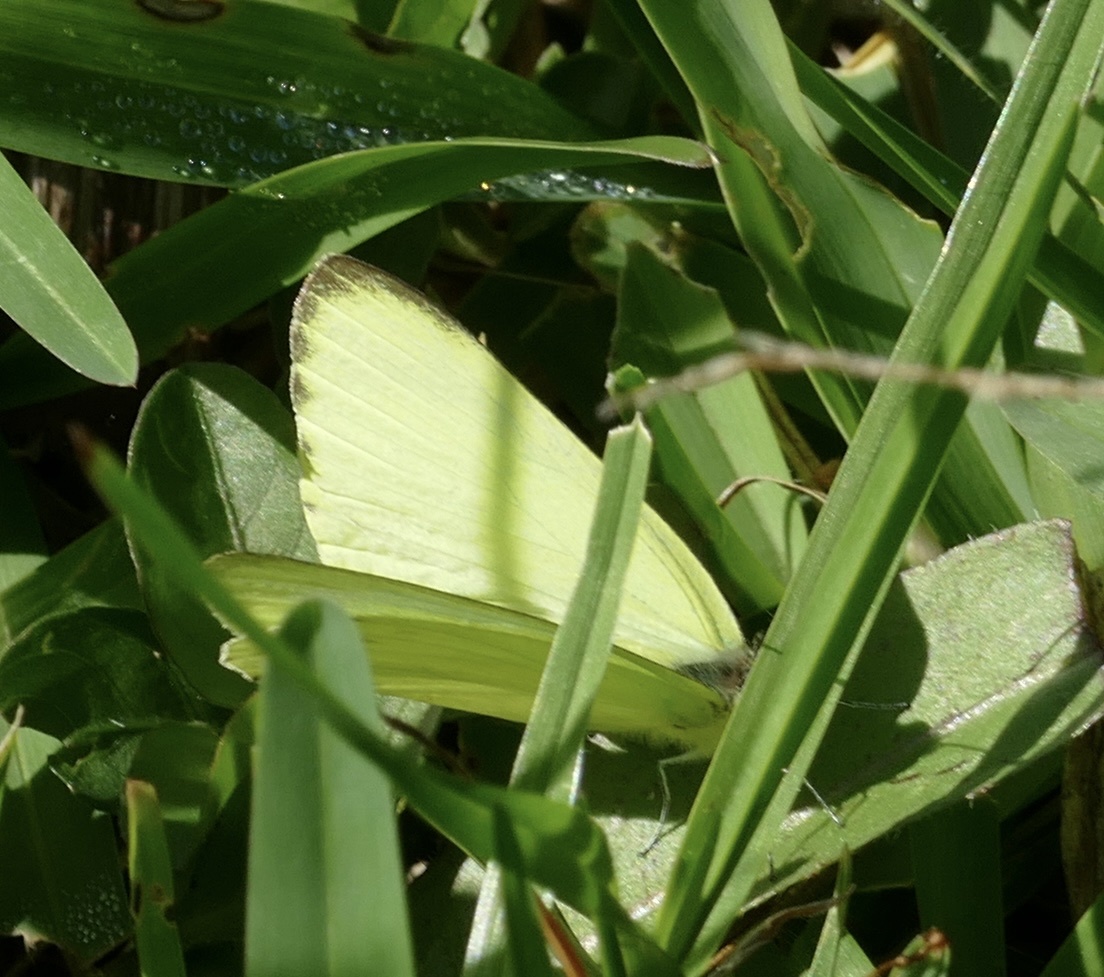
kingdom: Animalia
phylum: Arthropoda
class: Insecta
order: Lepidoptera
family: Pieridae
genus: Dixeia
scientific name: Dixeia spilleri
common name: Sulphur ant-heap white
